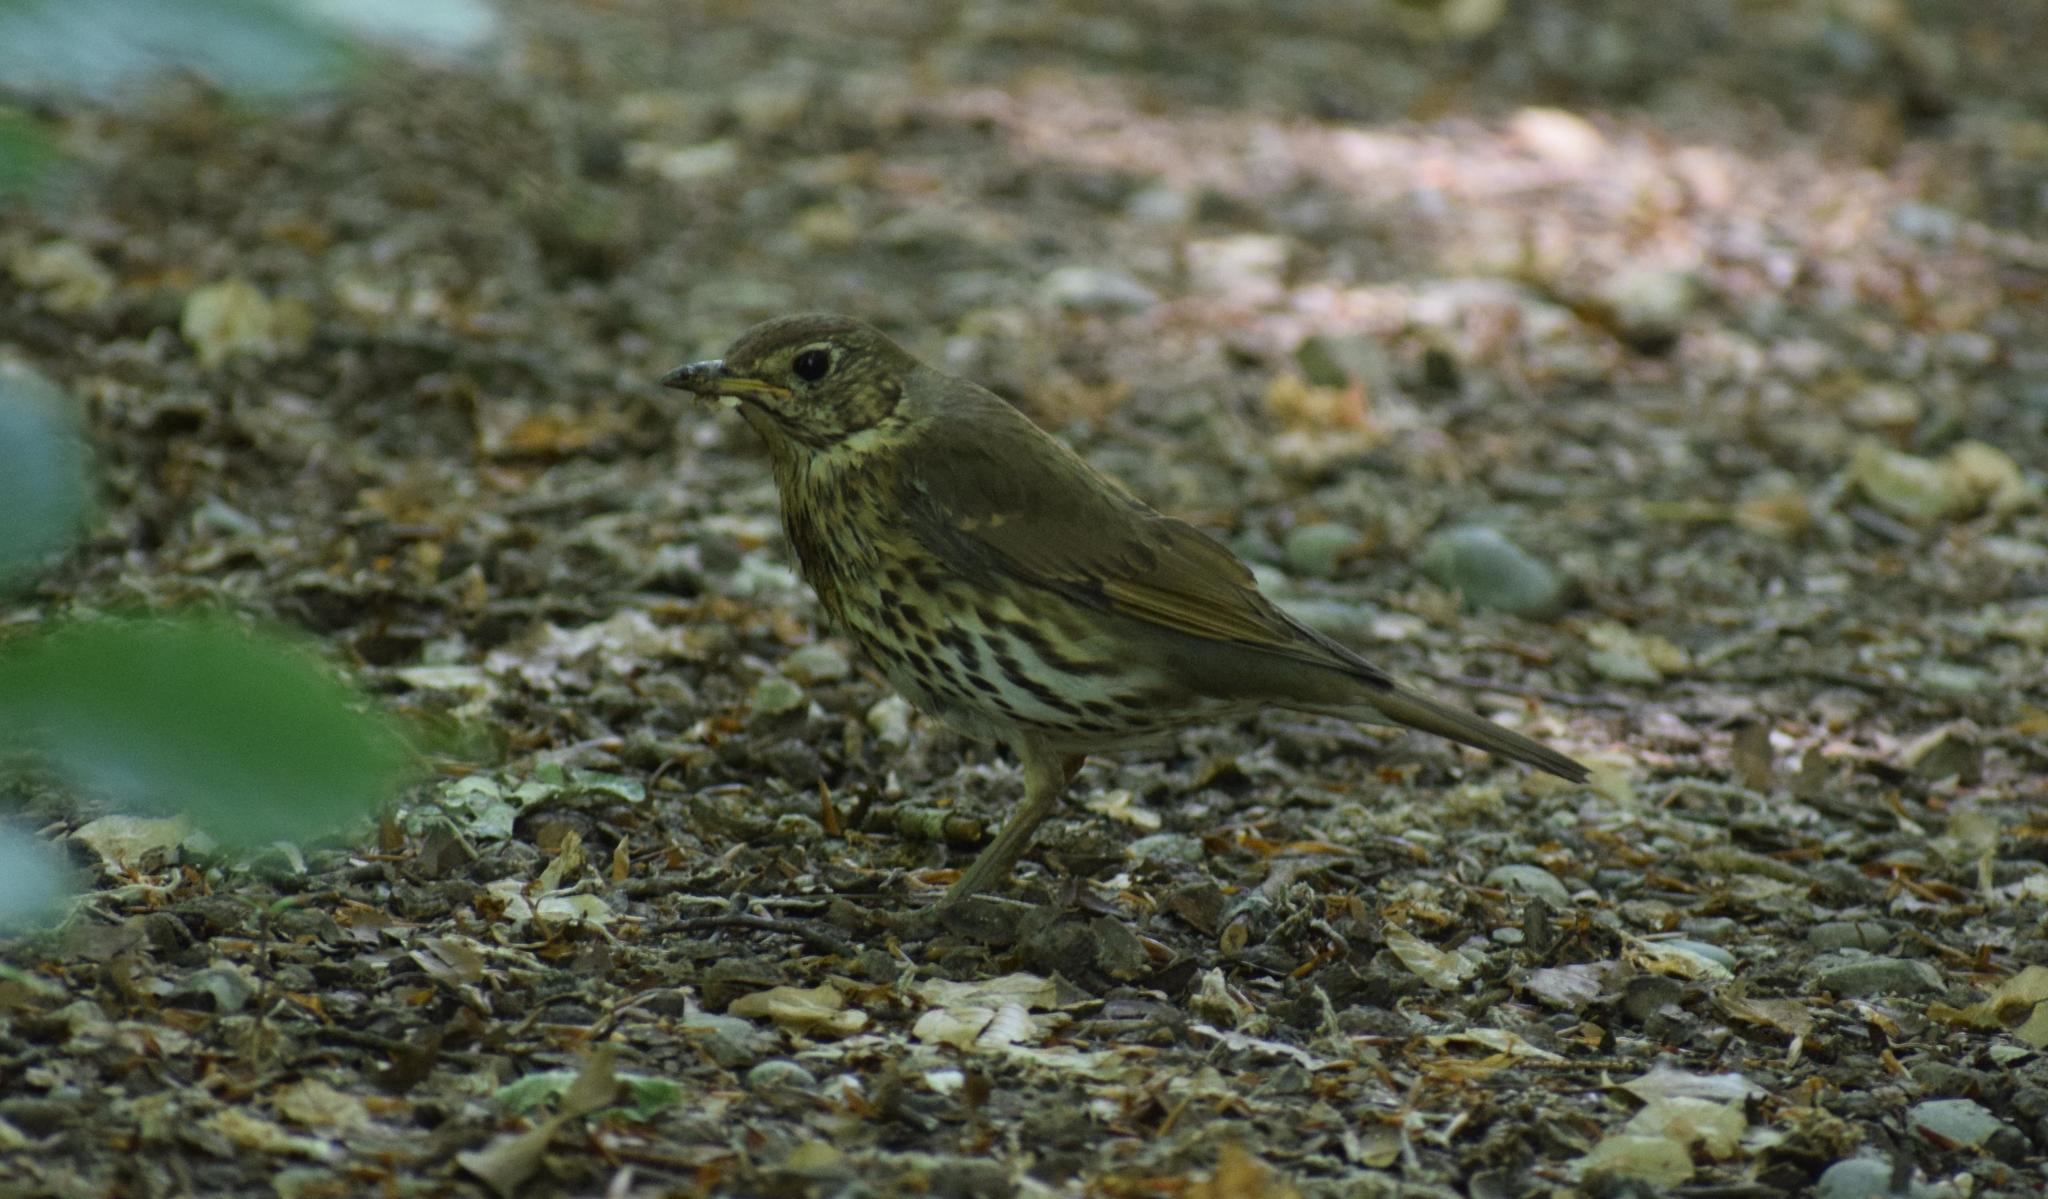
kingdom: Animalia
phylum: Chordata
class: Aves
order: Passeriformes
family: Turdidae
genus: Turdus
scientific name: Turdus philomelos
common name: Song thrush
